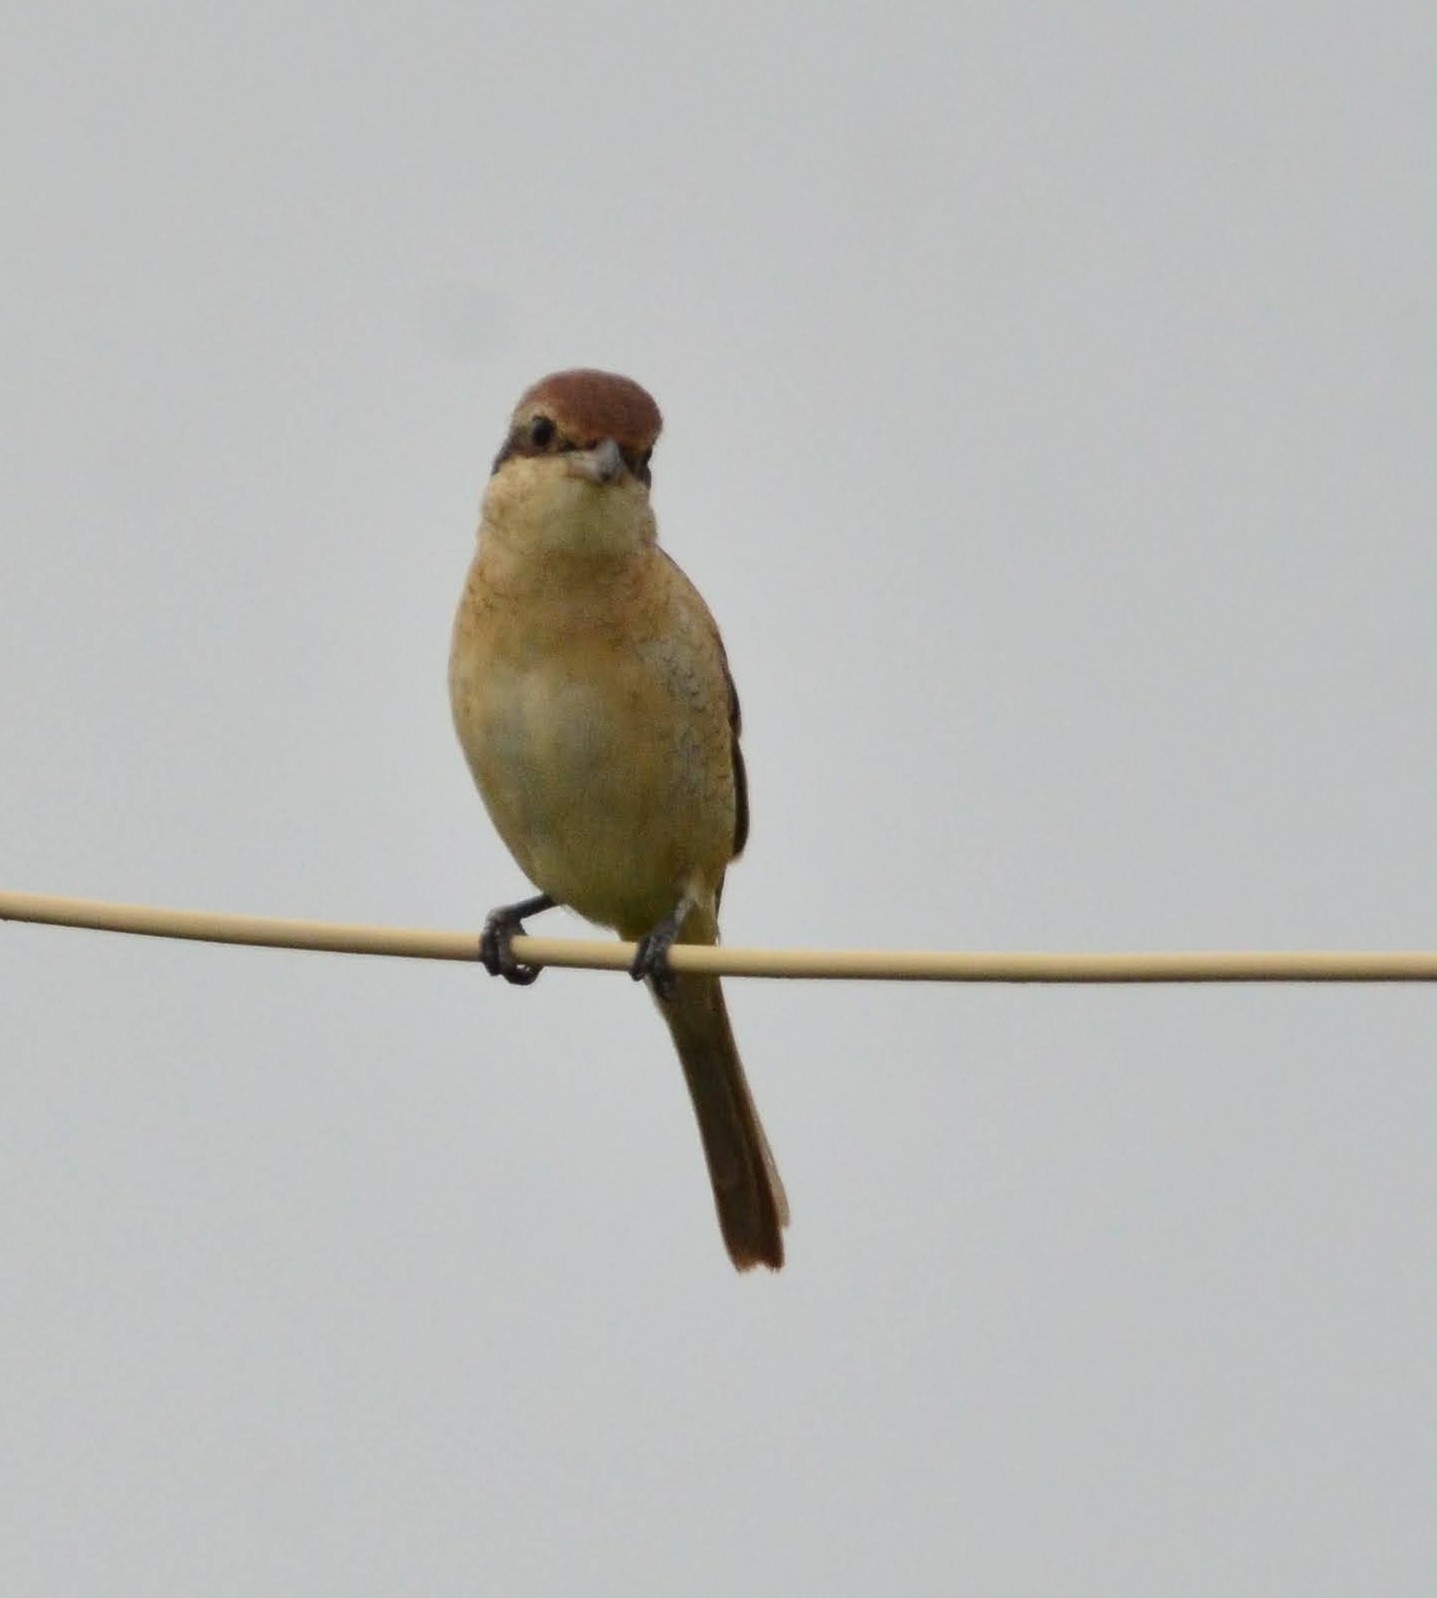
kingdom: Animalia
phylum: Chordata
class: Aves
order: Passeriformes
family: Laniidae
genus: Lanius
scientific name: Lanius cristatus
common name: Brown shrike
